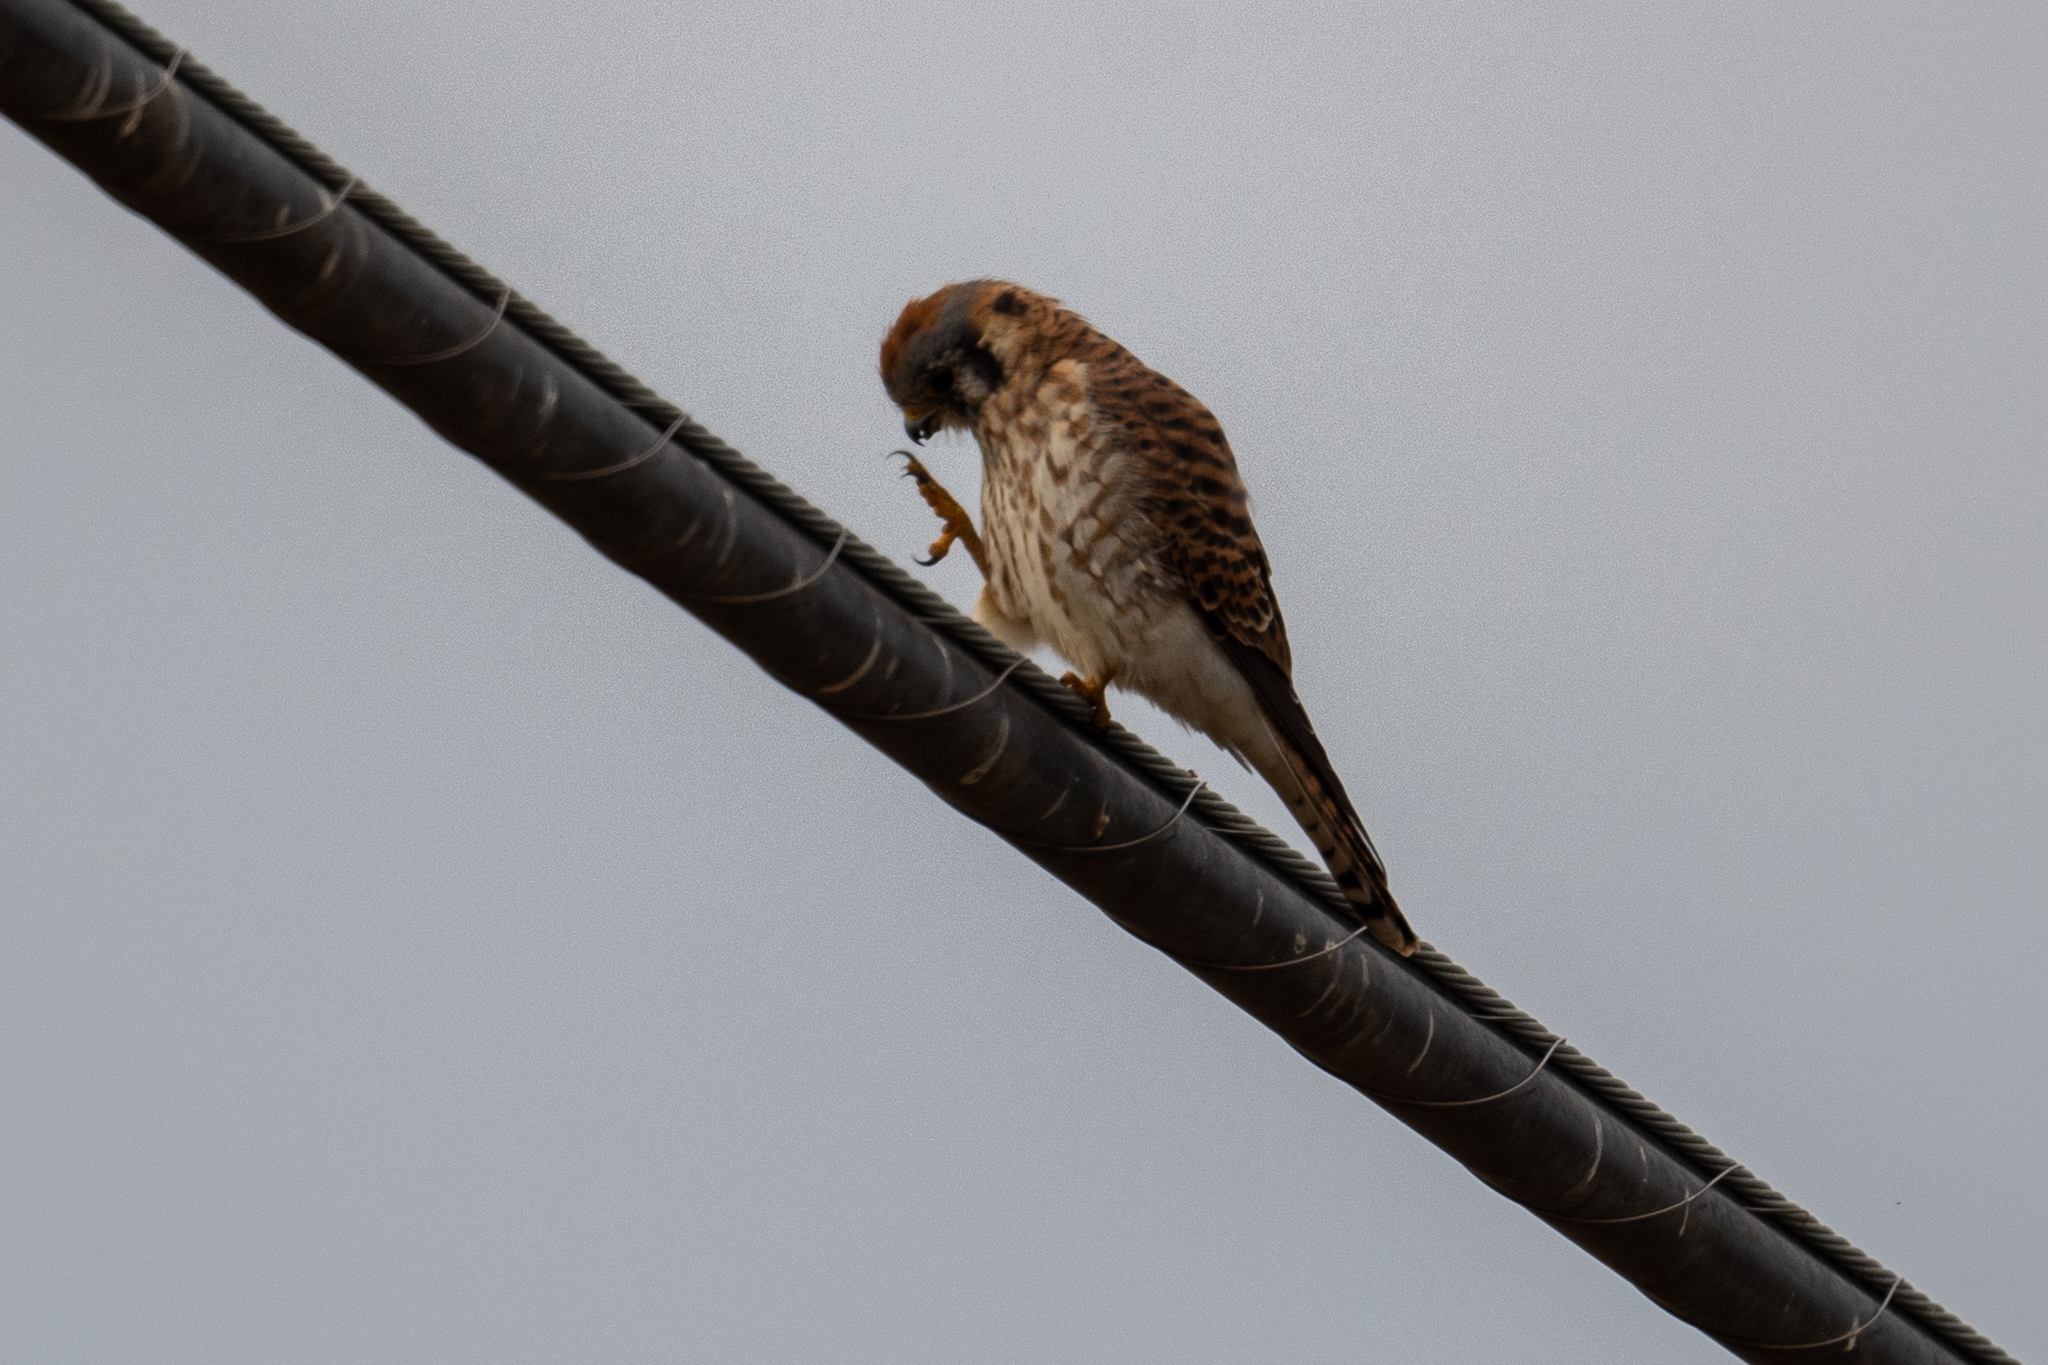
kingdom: Animalia
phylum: Chordata
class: Aves
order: Falconiformes
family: Falconidae
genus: Falco
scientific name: Falco sparverius
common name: American kestrel
